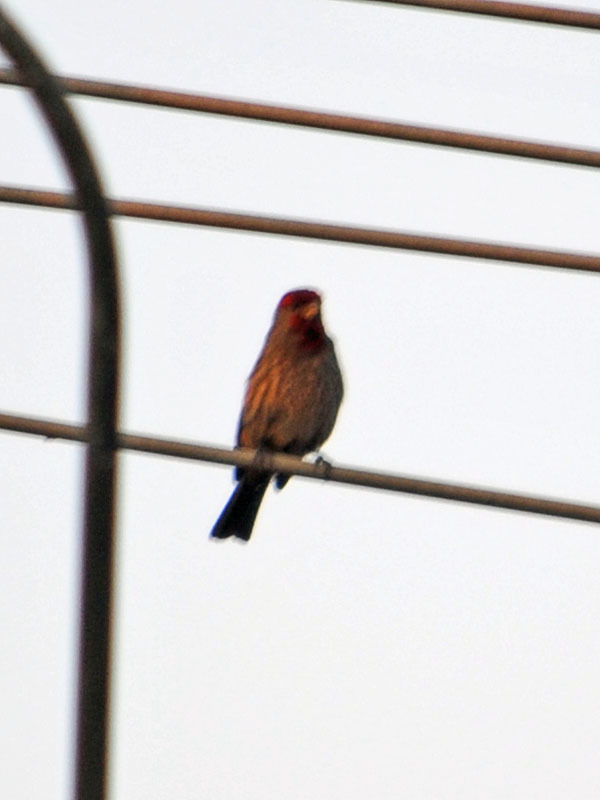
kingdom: Animalia
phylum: Chordata
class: Aves
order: Passeriformes
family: Fringillidae
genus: Haemorhous
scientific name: Haemorhous mexicanus
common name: House finch
